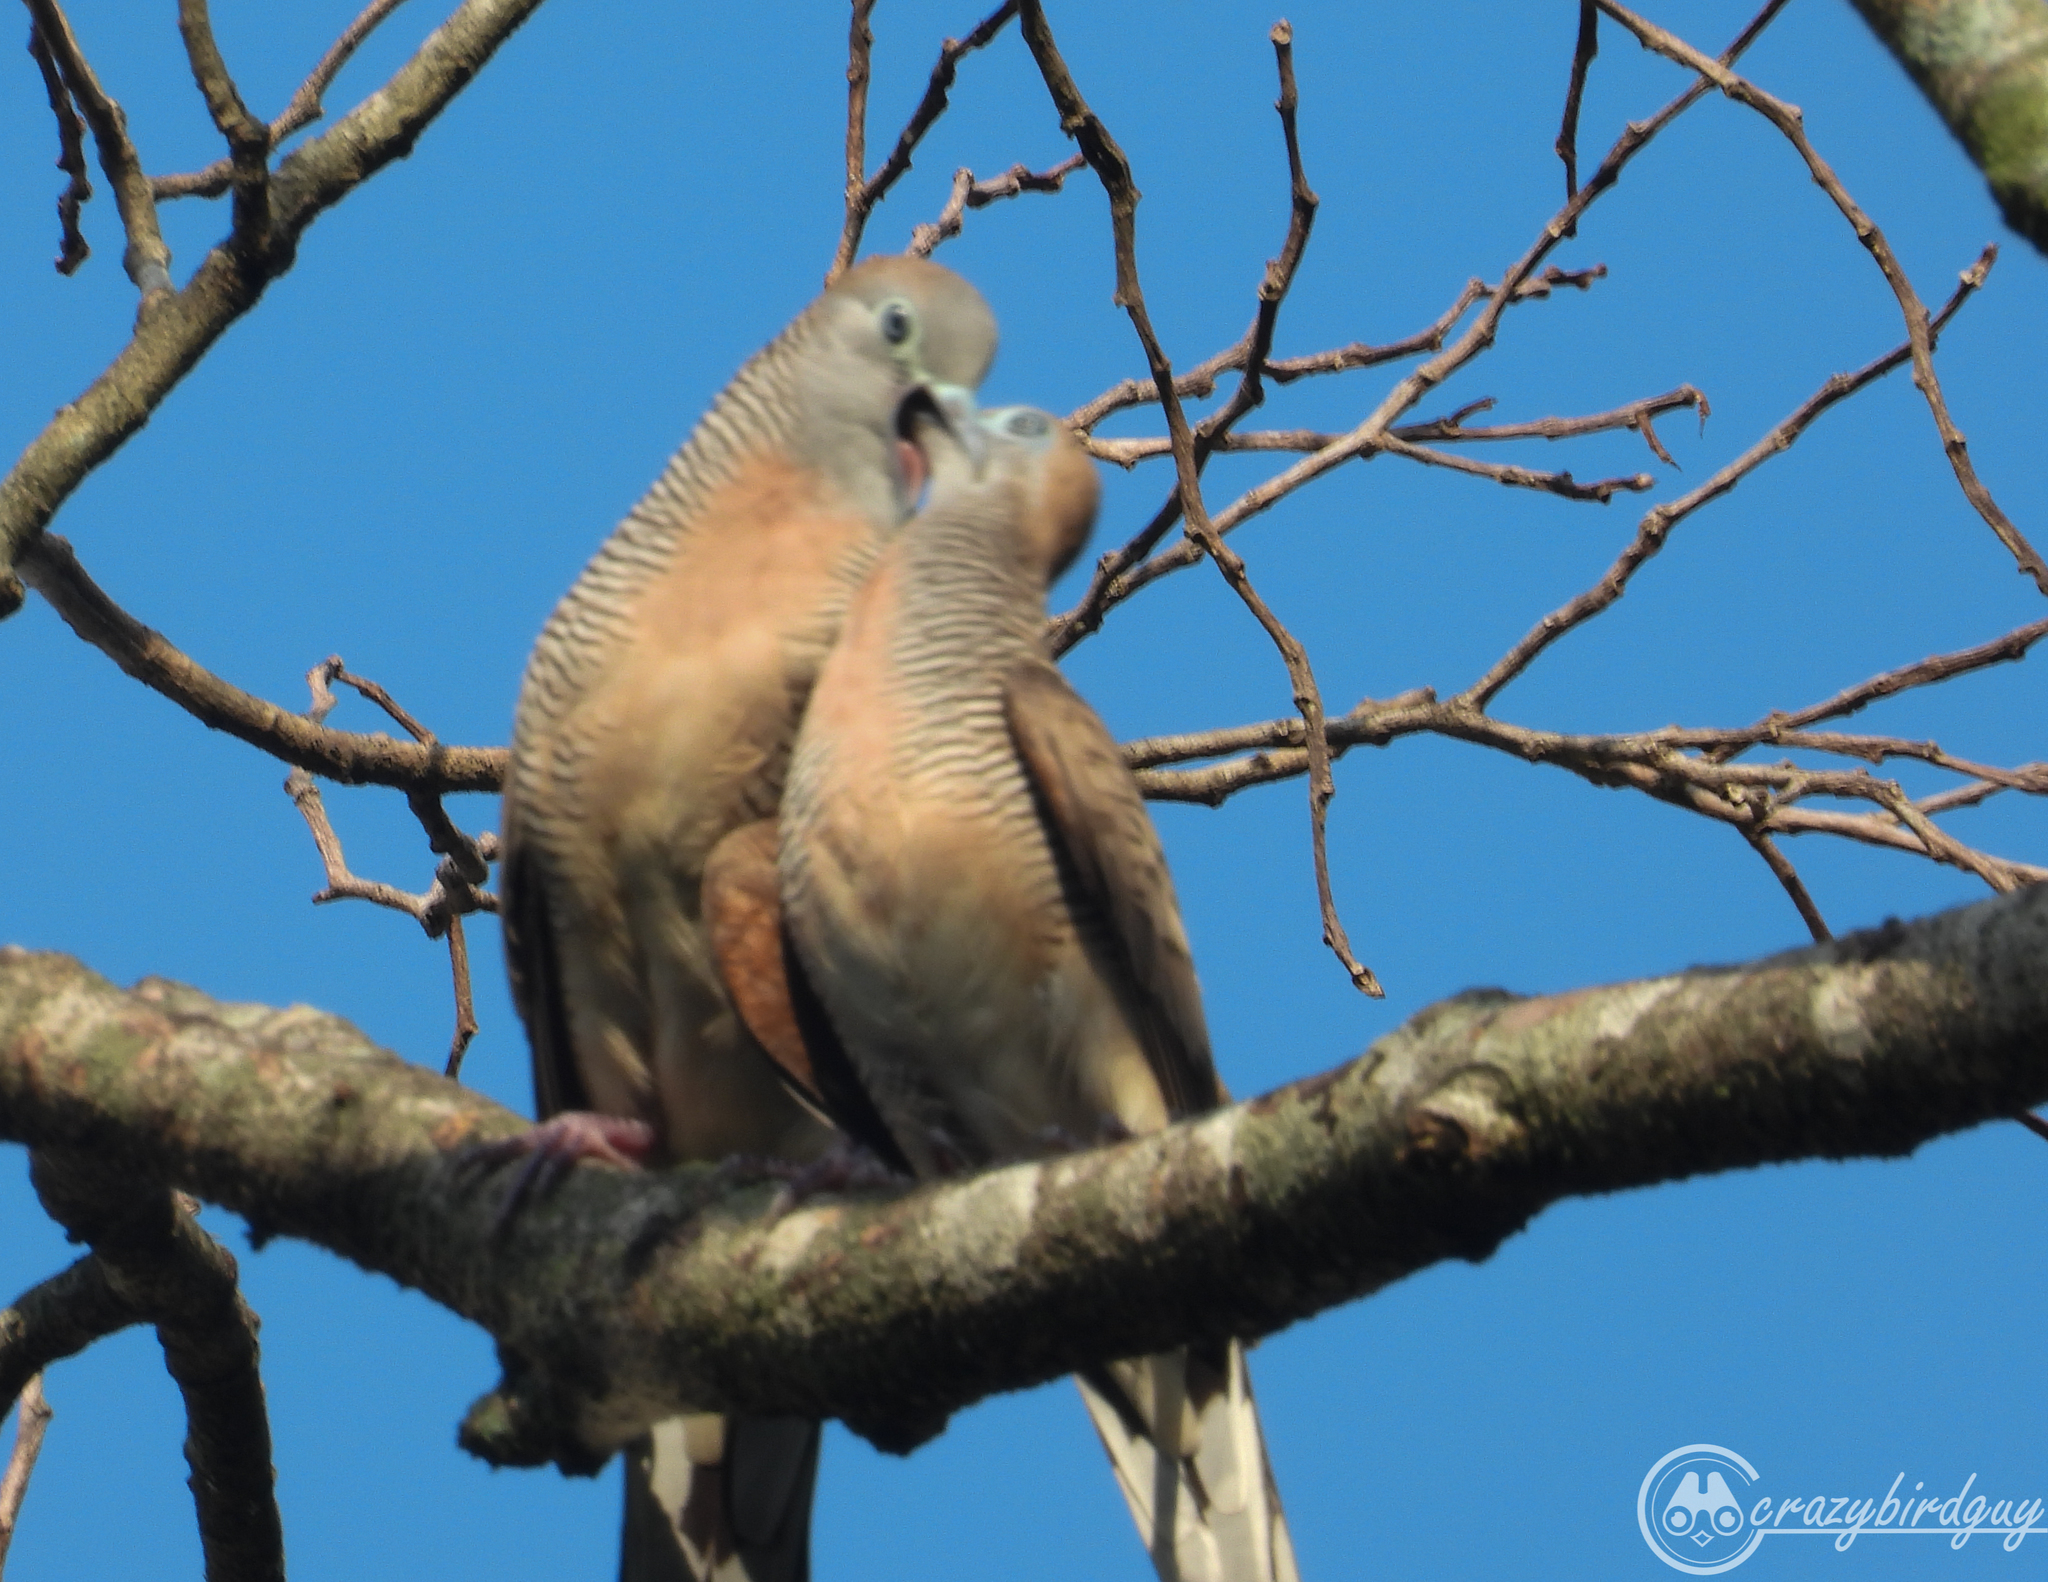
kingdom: Animalia
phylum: Chordata
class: Aves
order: Columbiformes
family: Columbidae
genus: Geopelia
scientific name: Geopelia striata
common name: Zebra dove
